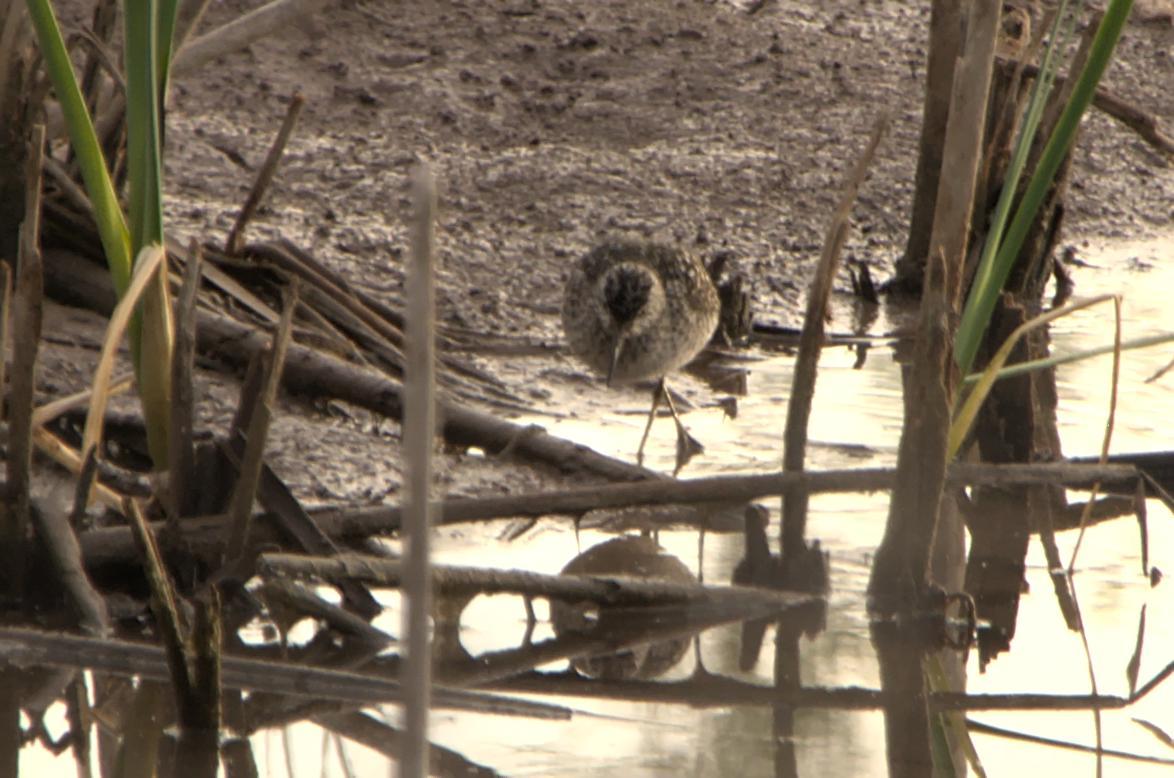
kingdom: Animalia
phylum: Chordata
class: Aves
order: Charadriiformes
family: Scolopacidae
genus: Tringa
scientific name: Tringa glareola
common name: Wood sandpiper
